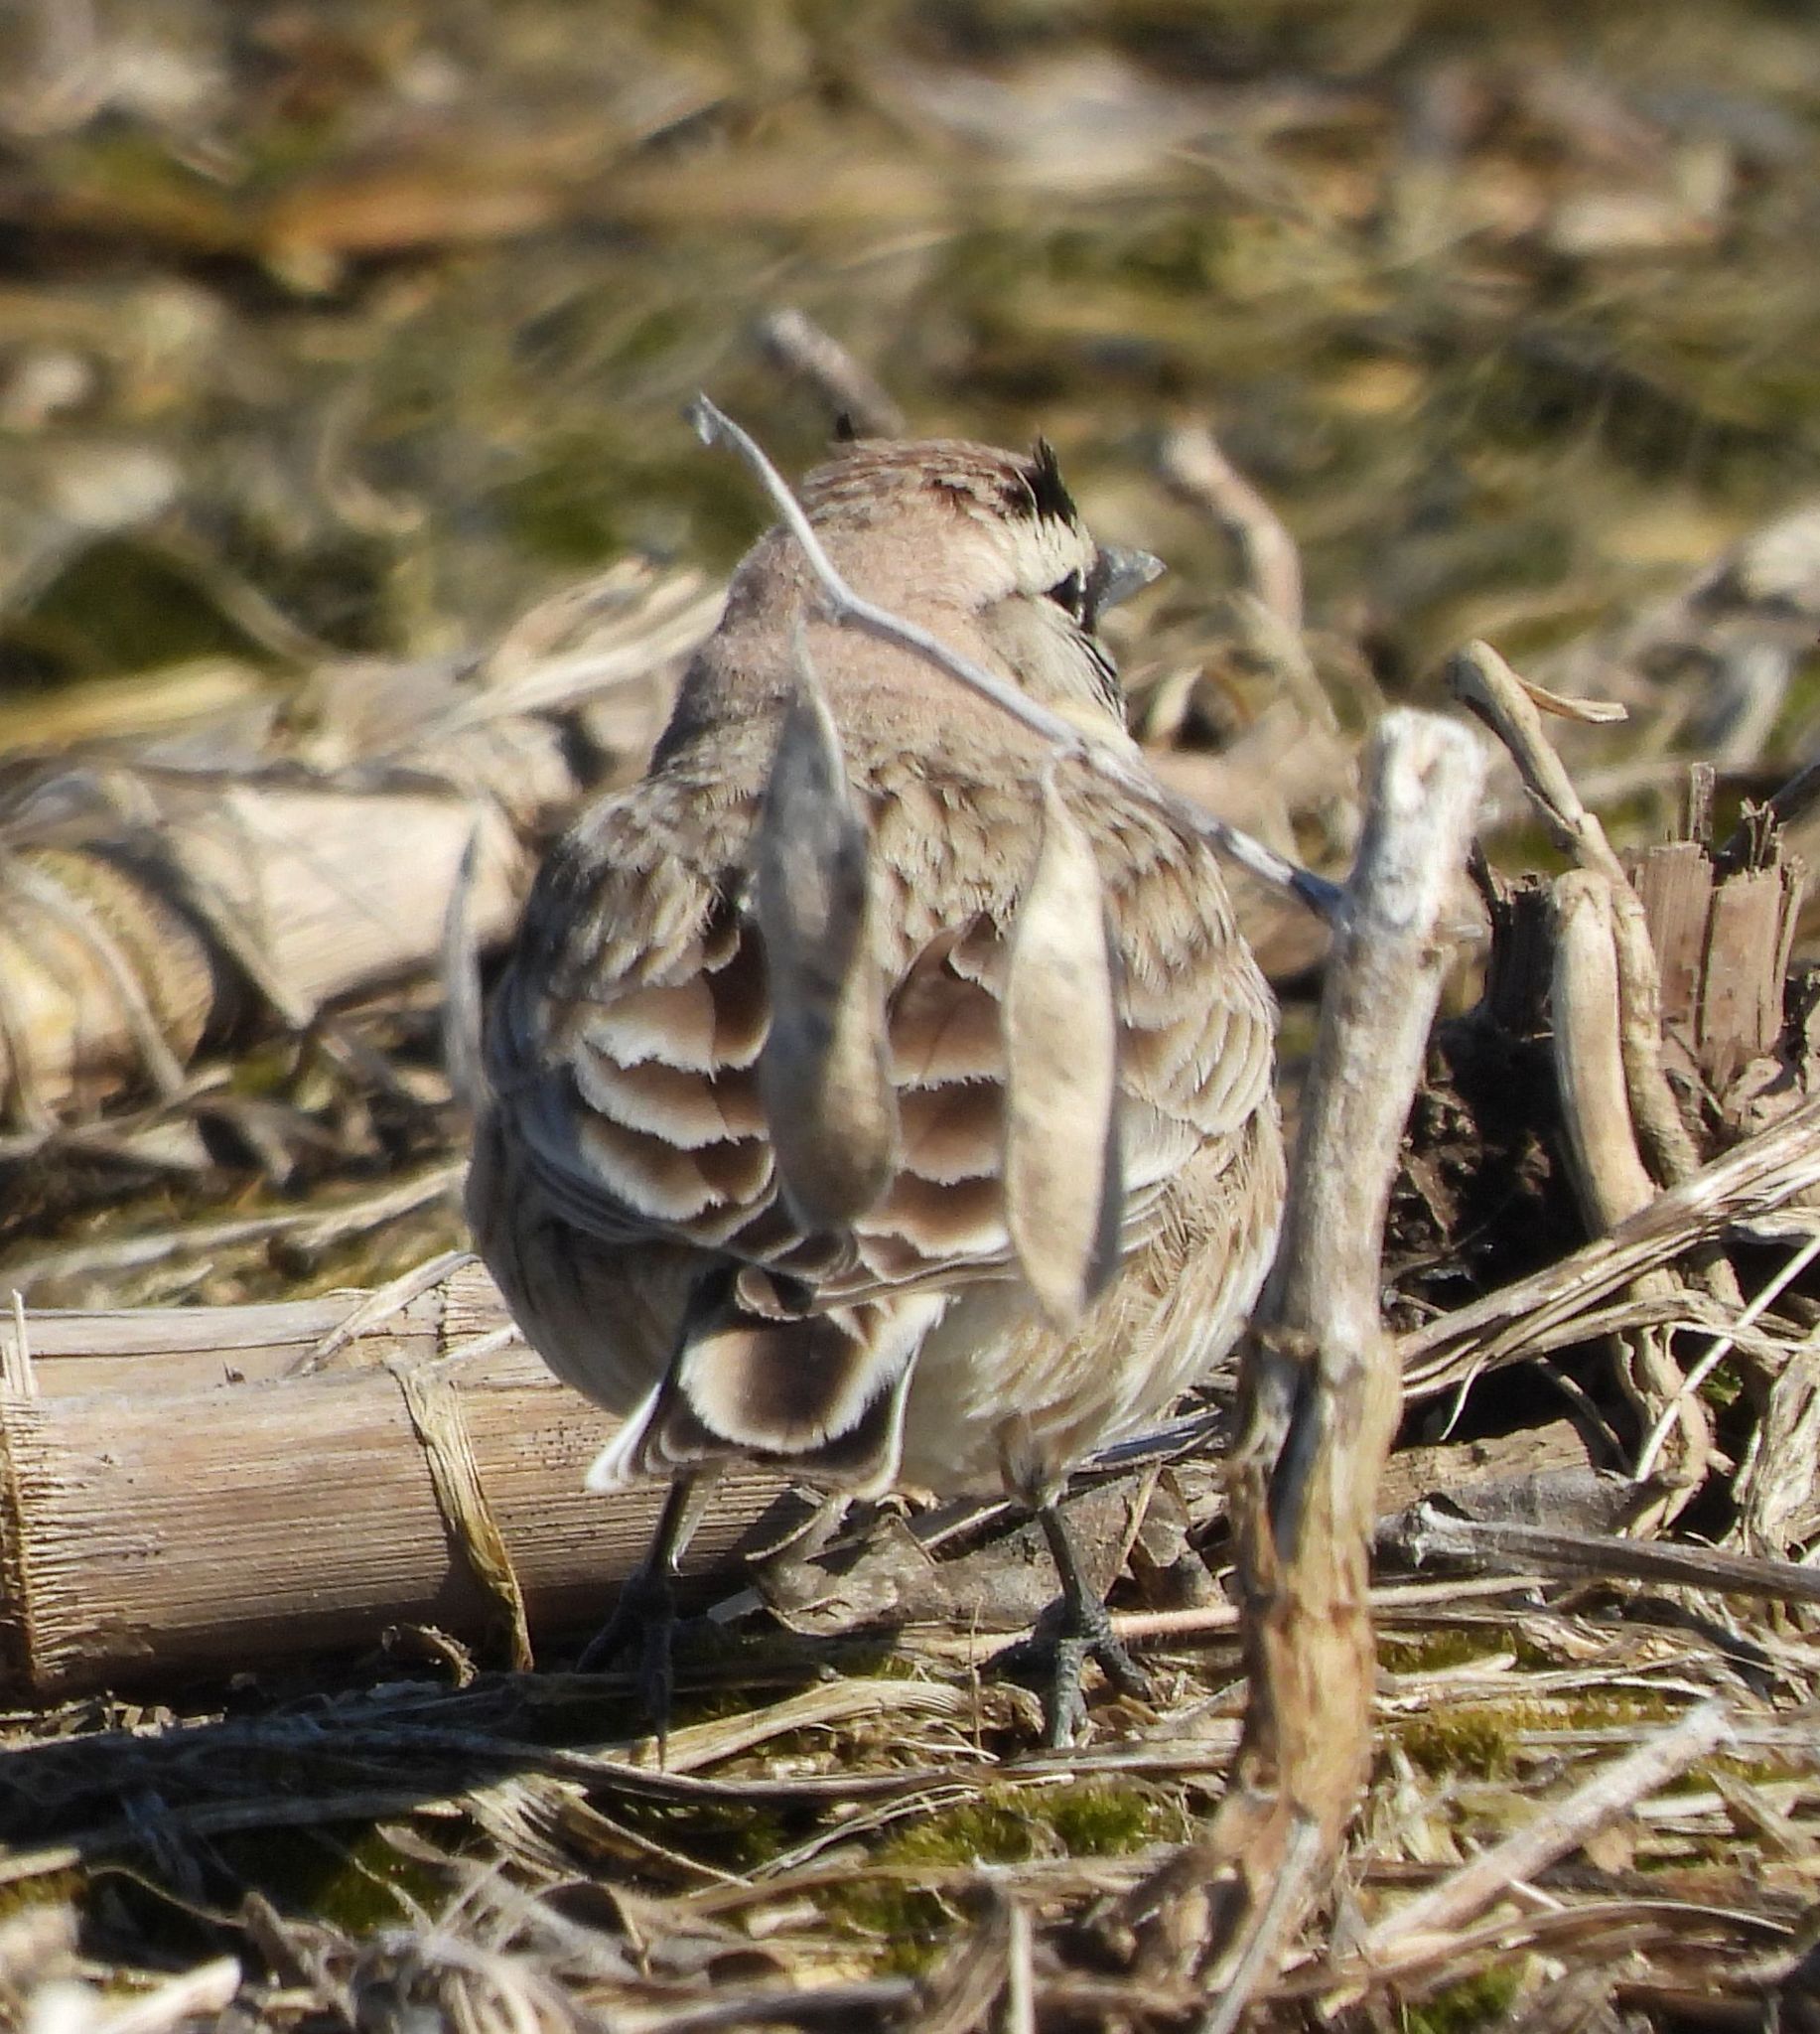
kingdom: Animalia
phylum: Chordata
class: Aves
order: Passeriformes
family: Alaudidae
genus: Eremophila
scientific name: Eremophila alpestris
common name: Horned lark
